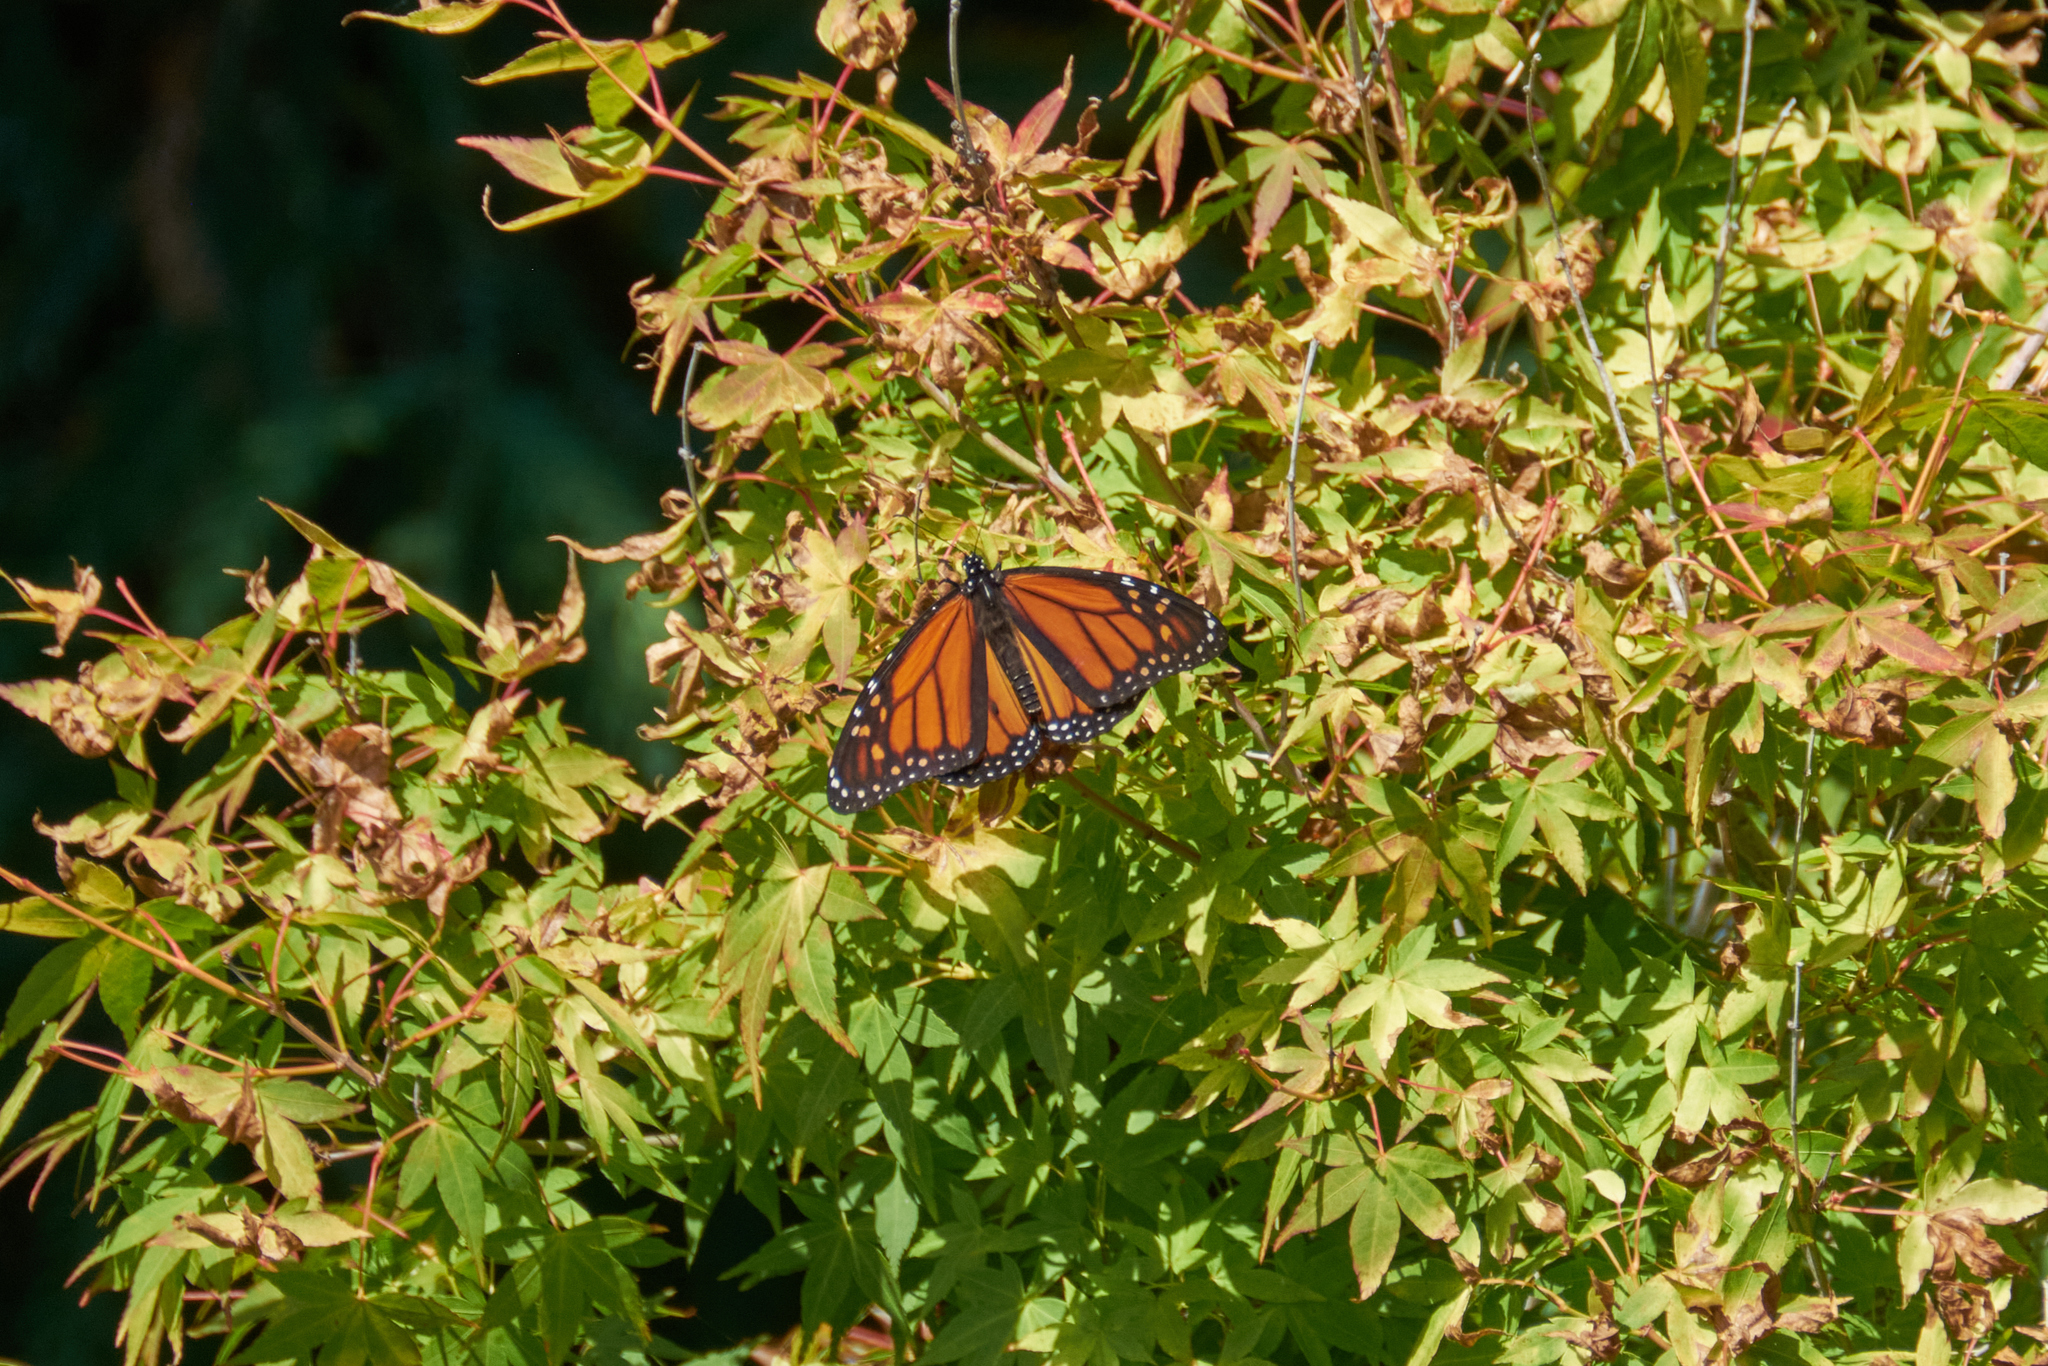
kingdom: Animalia
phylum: Arthropoda
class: Insecta
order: Lepidoptera
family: Nymphalidae
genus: Danaus
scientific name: Danaus plexippus
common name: Monarch
